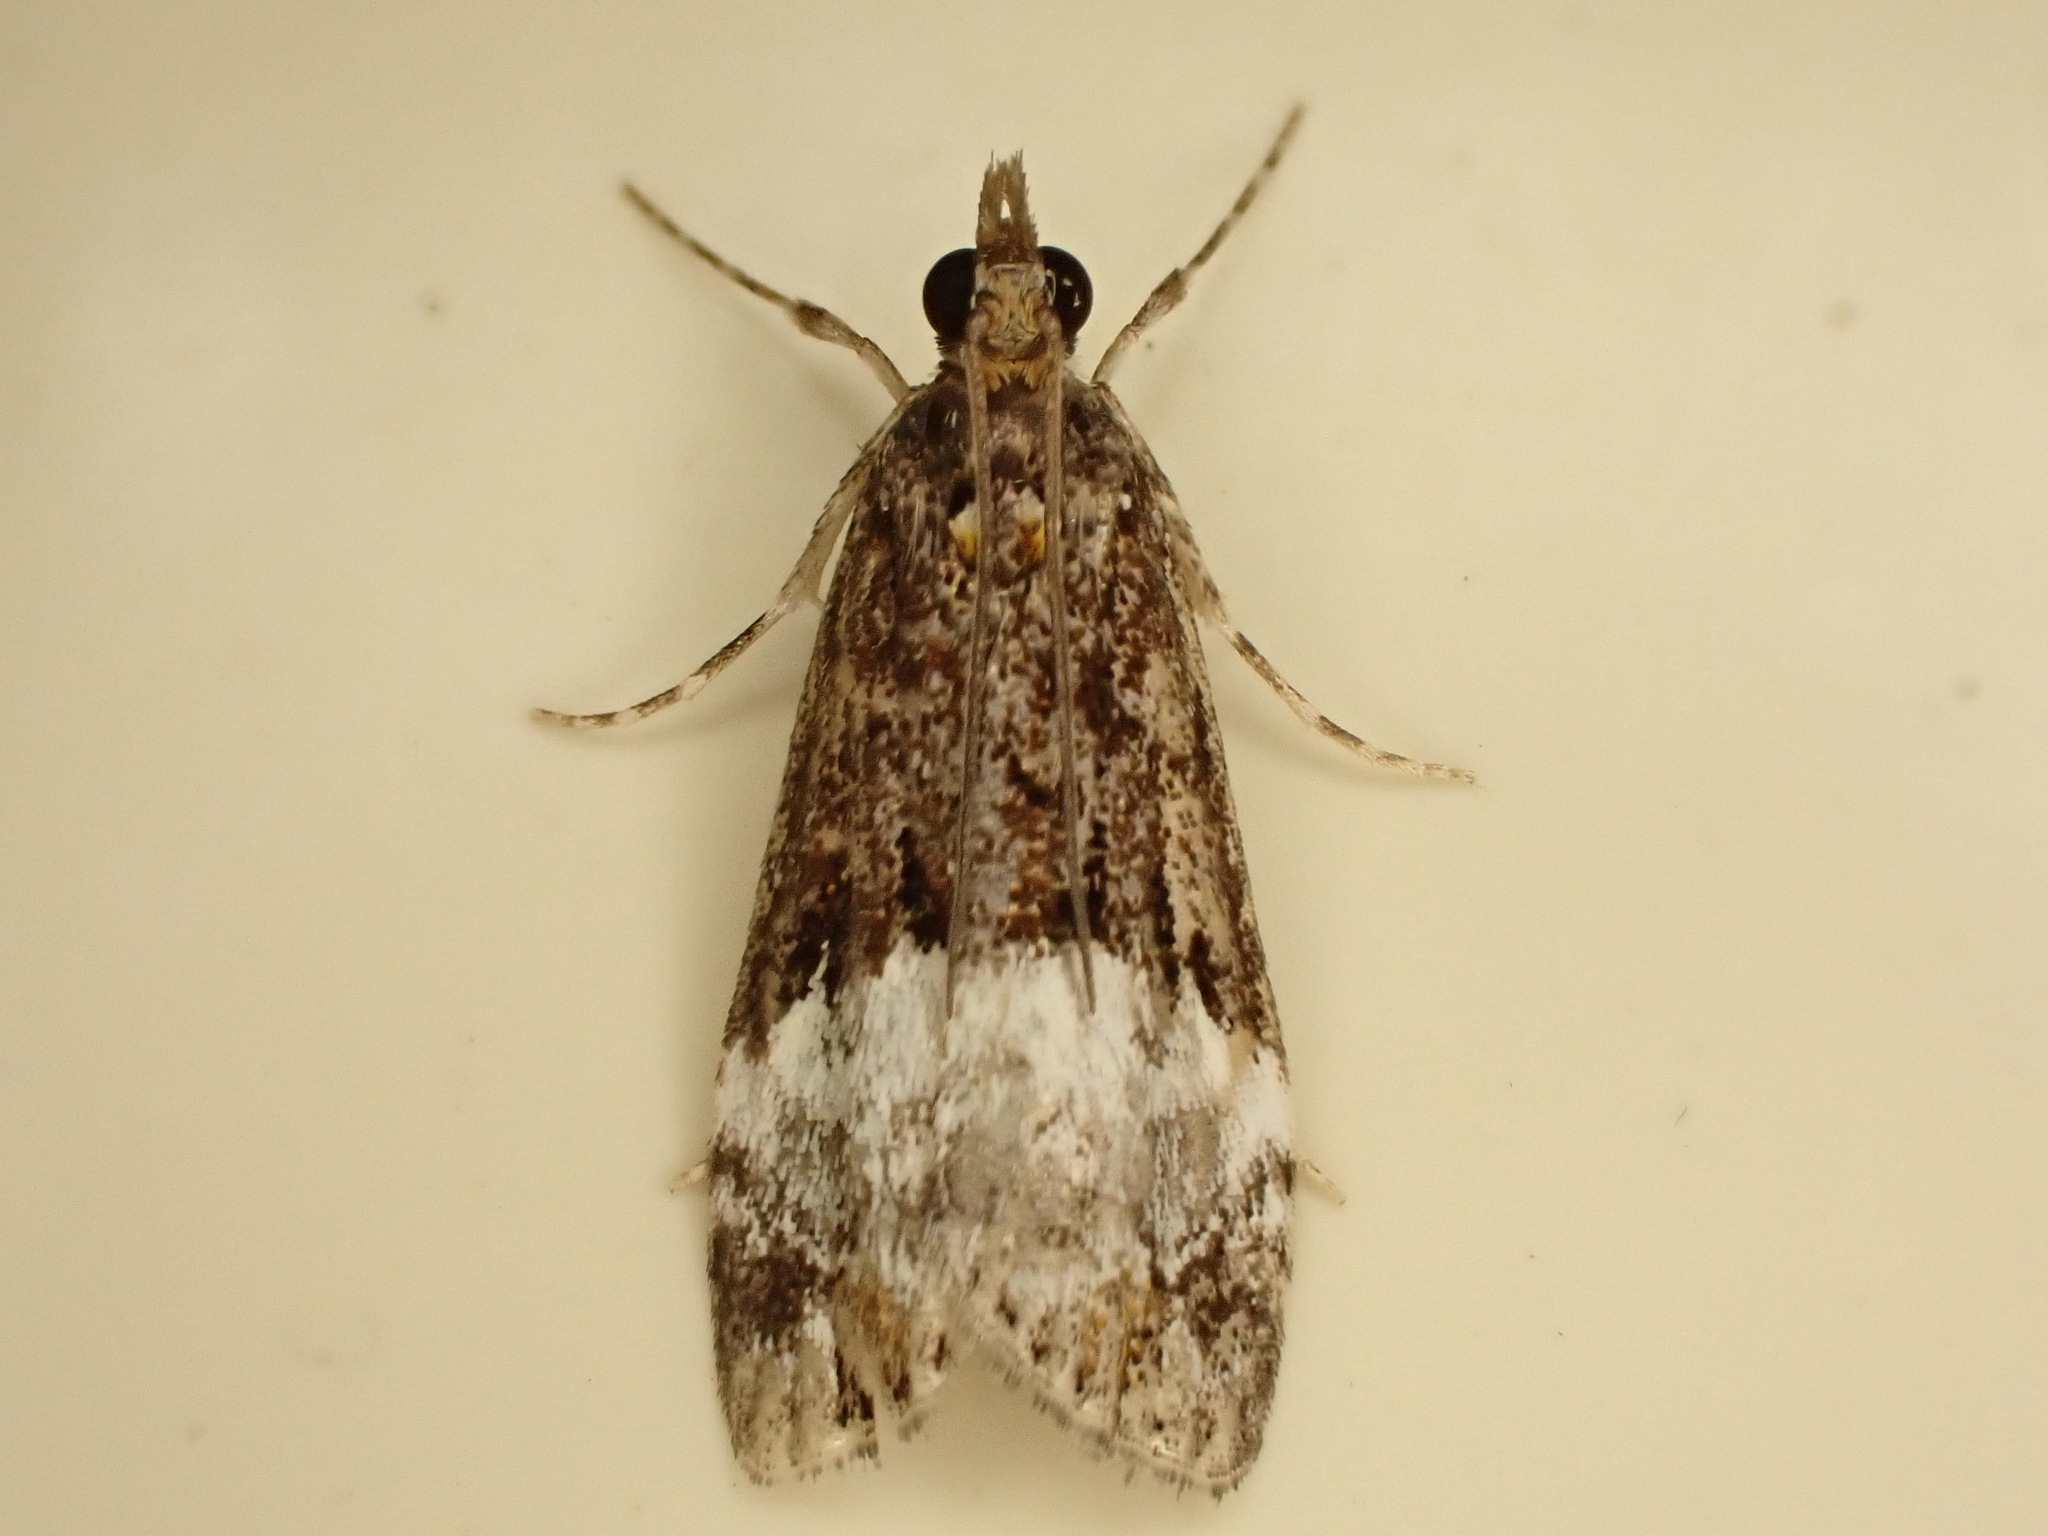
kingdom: Animalia
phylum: Arthropoda
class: Insecta
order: Lepidoptera
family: Crambidae
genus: Scoparia
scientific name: Scoparia minusculalis
